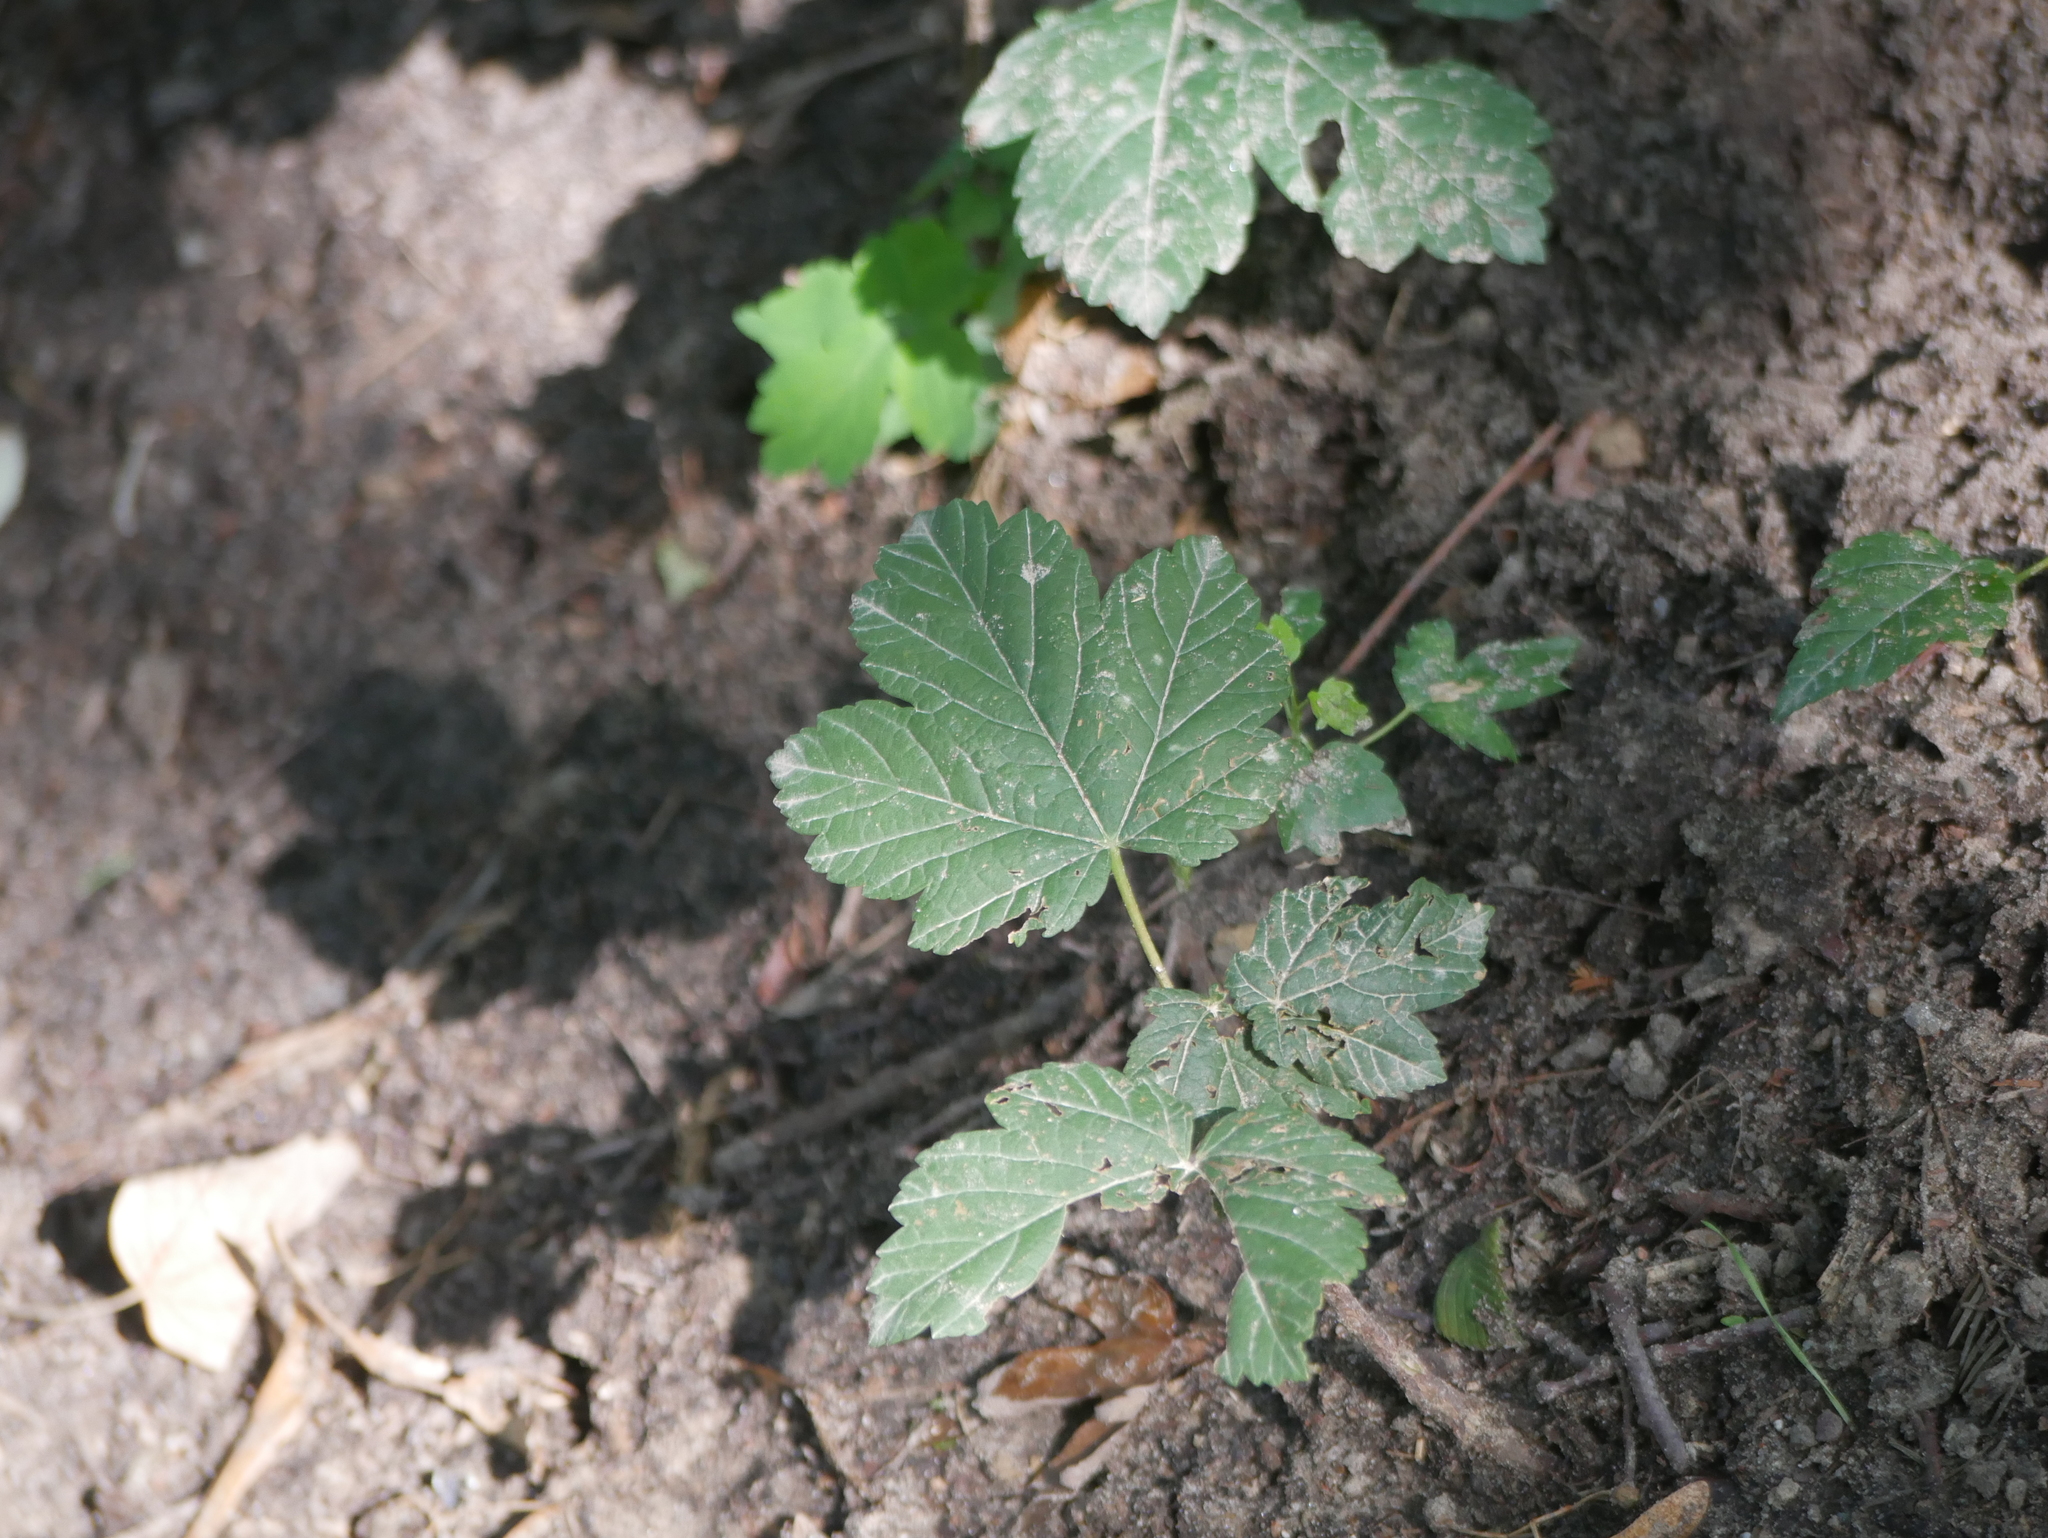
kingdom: Plantae
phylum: Tracheophyta
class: Magnoliopsida
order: Sapindales
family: Sapindaceae
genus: Acer
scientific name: Acer pseudoplatanus
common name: Sycamore
